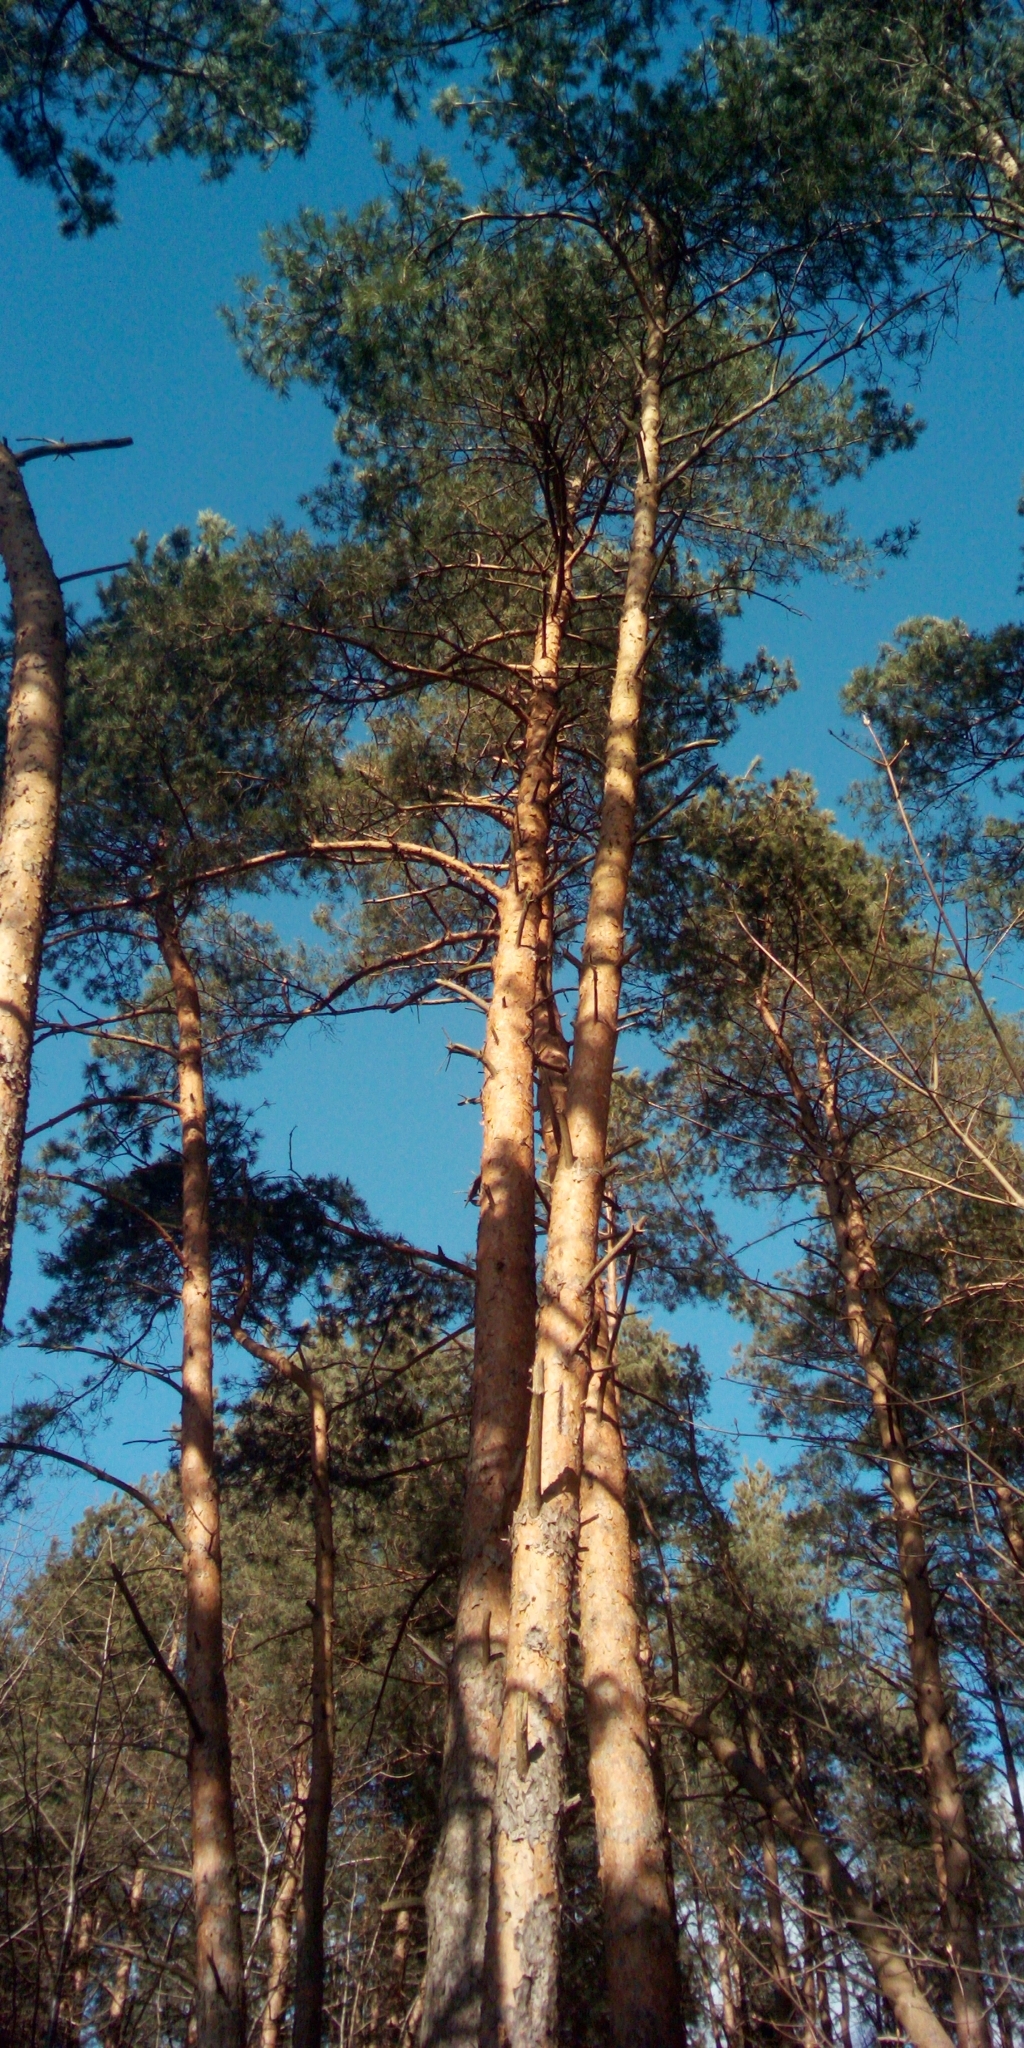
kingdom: Plantae
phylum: Tracheophyta
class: Pinopsida
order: Pinales
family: Pinaceae
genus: Pinus
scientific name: Pinus sylvestris
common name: Scots pine
